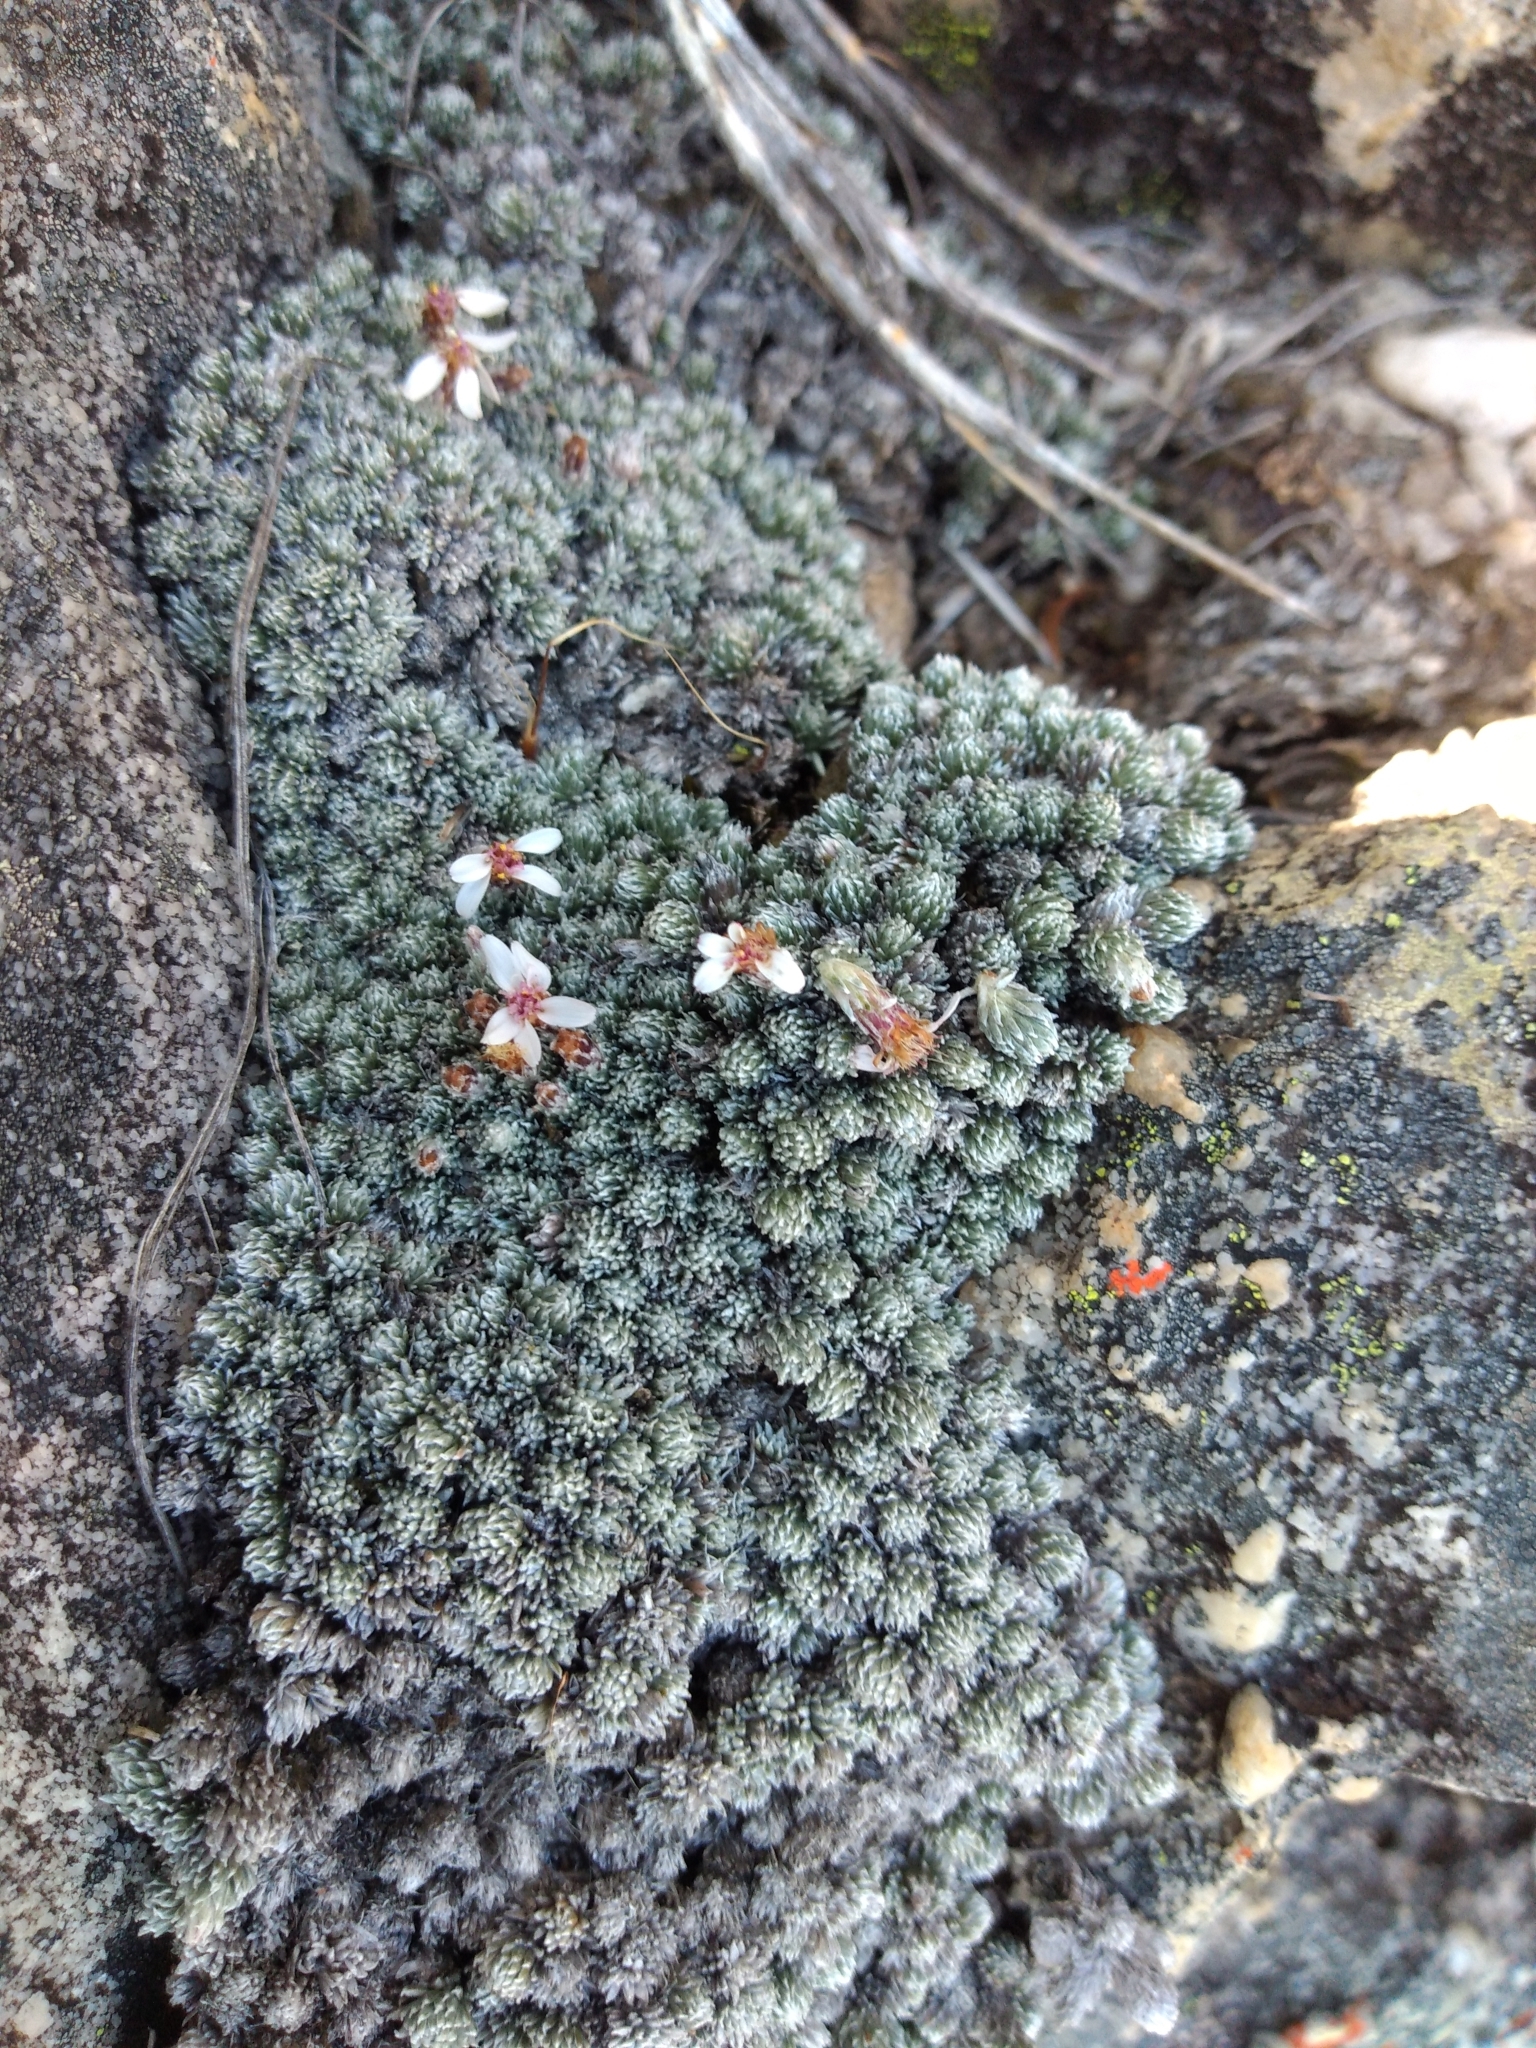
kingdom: Plantae
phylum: Tracheophyta
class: Magnoliopsida
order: Asterales
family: Asteraceae
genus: Muscosomorphe
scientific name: Muscosomorphe aretioides
